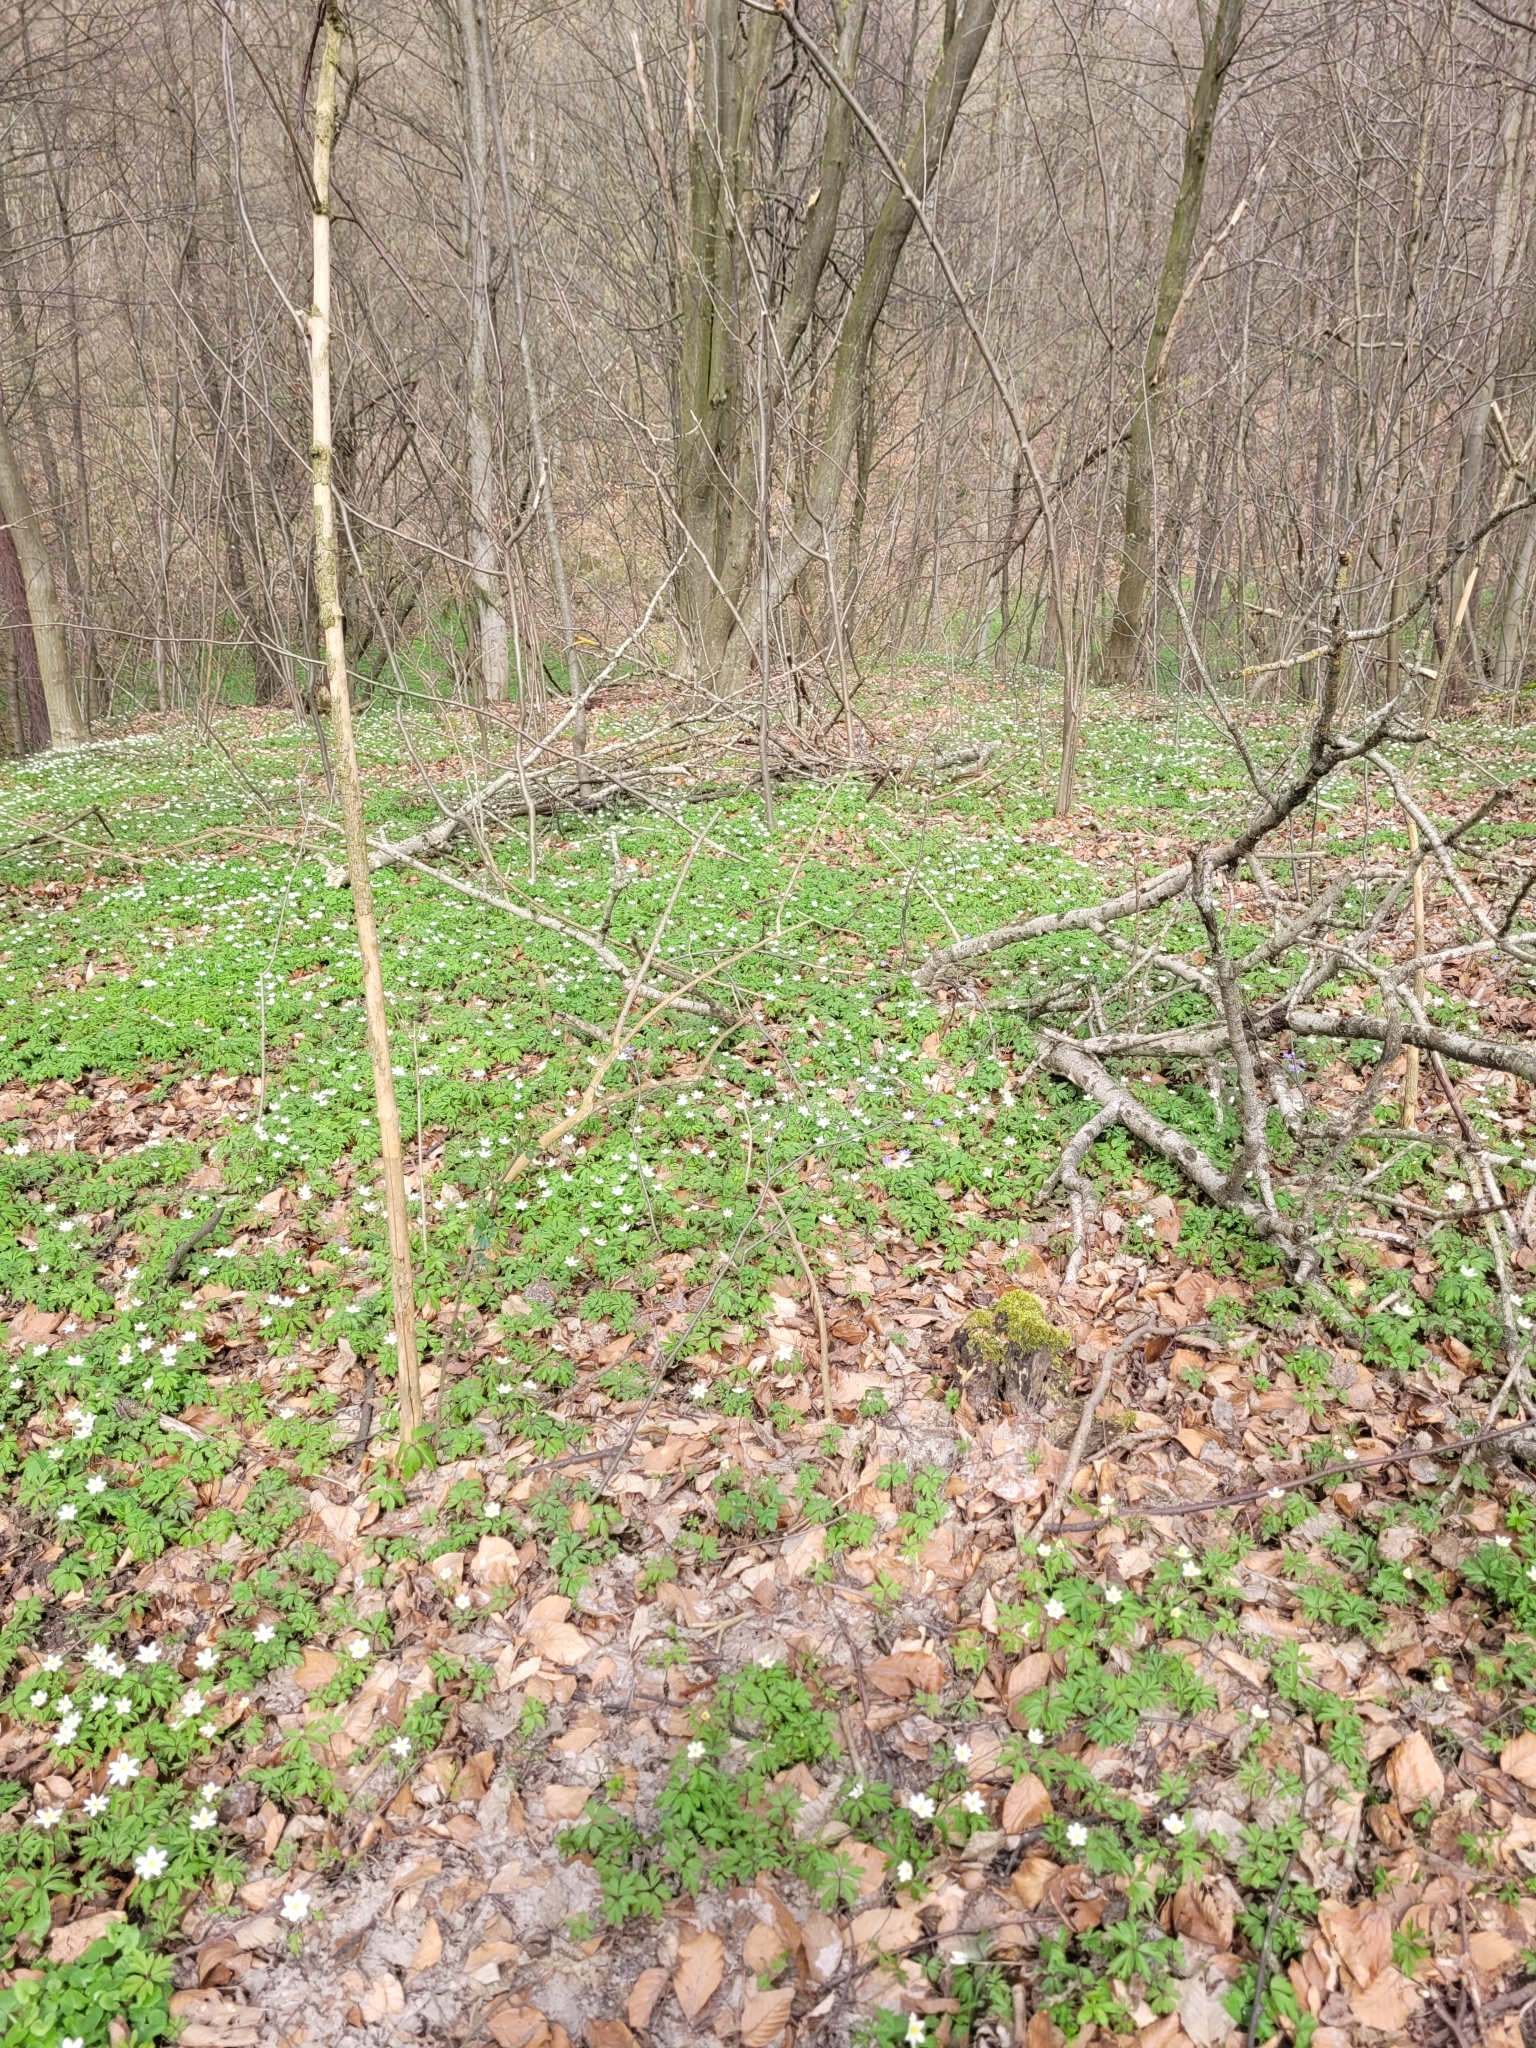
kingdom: Plantae
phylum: Tracheophyta
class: Magnoliopsida
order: Ranunculales
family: Ranunculaceae
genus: Anemone
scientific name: Anemone nemorosa
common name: Wood anemone
